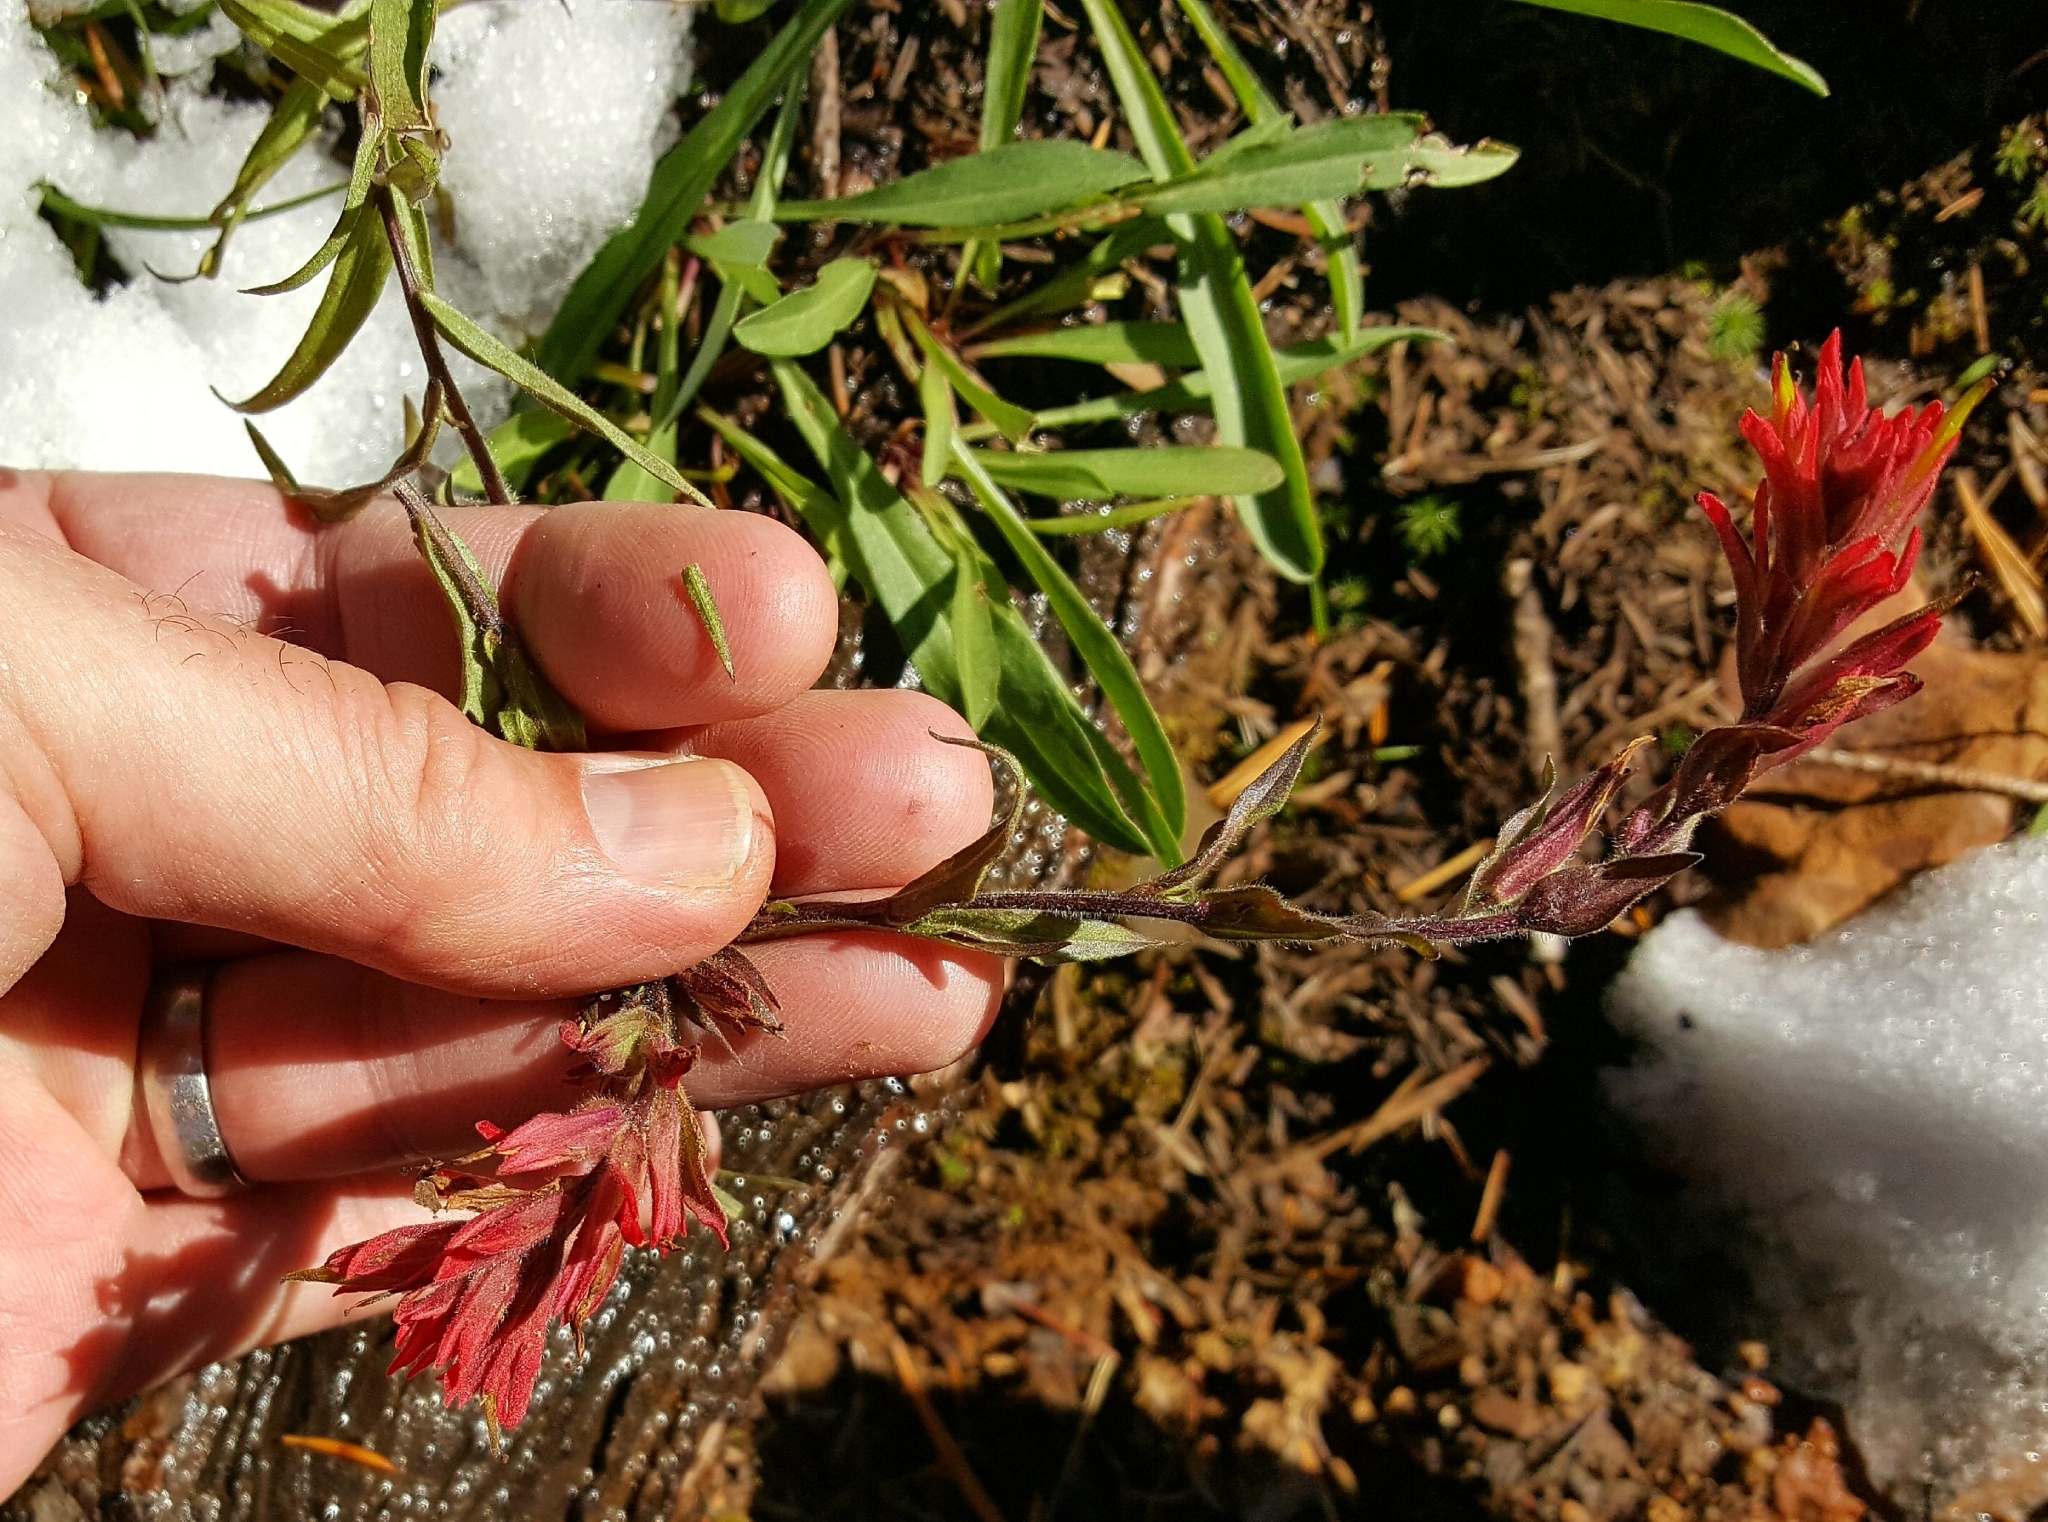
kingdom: Plantae
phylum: Tracheophyta
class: Magnoliopsida
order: Lamiales
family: Orobanchaceae
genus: Castilleja
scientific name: Castilleja miniata
